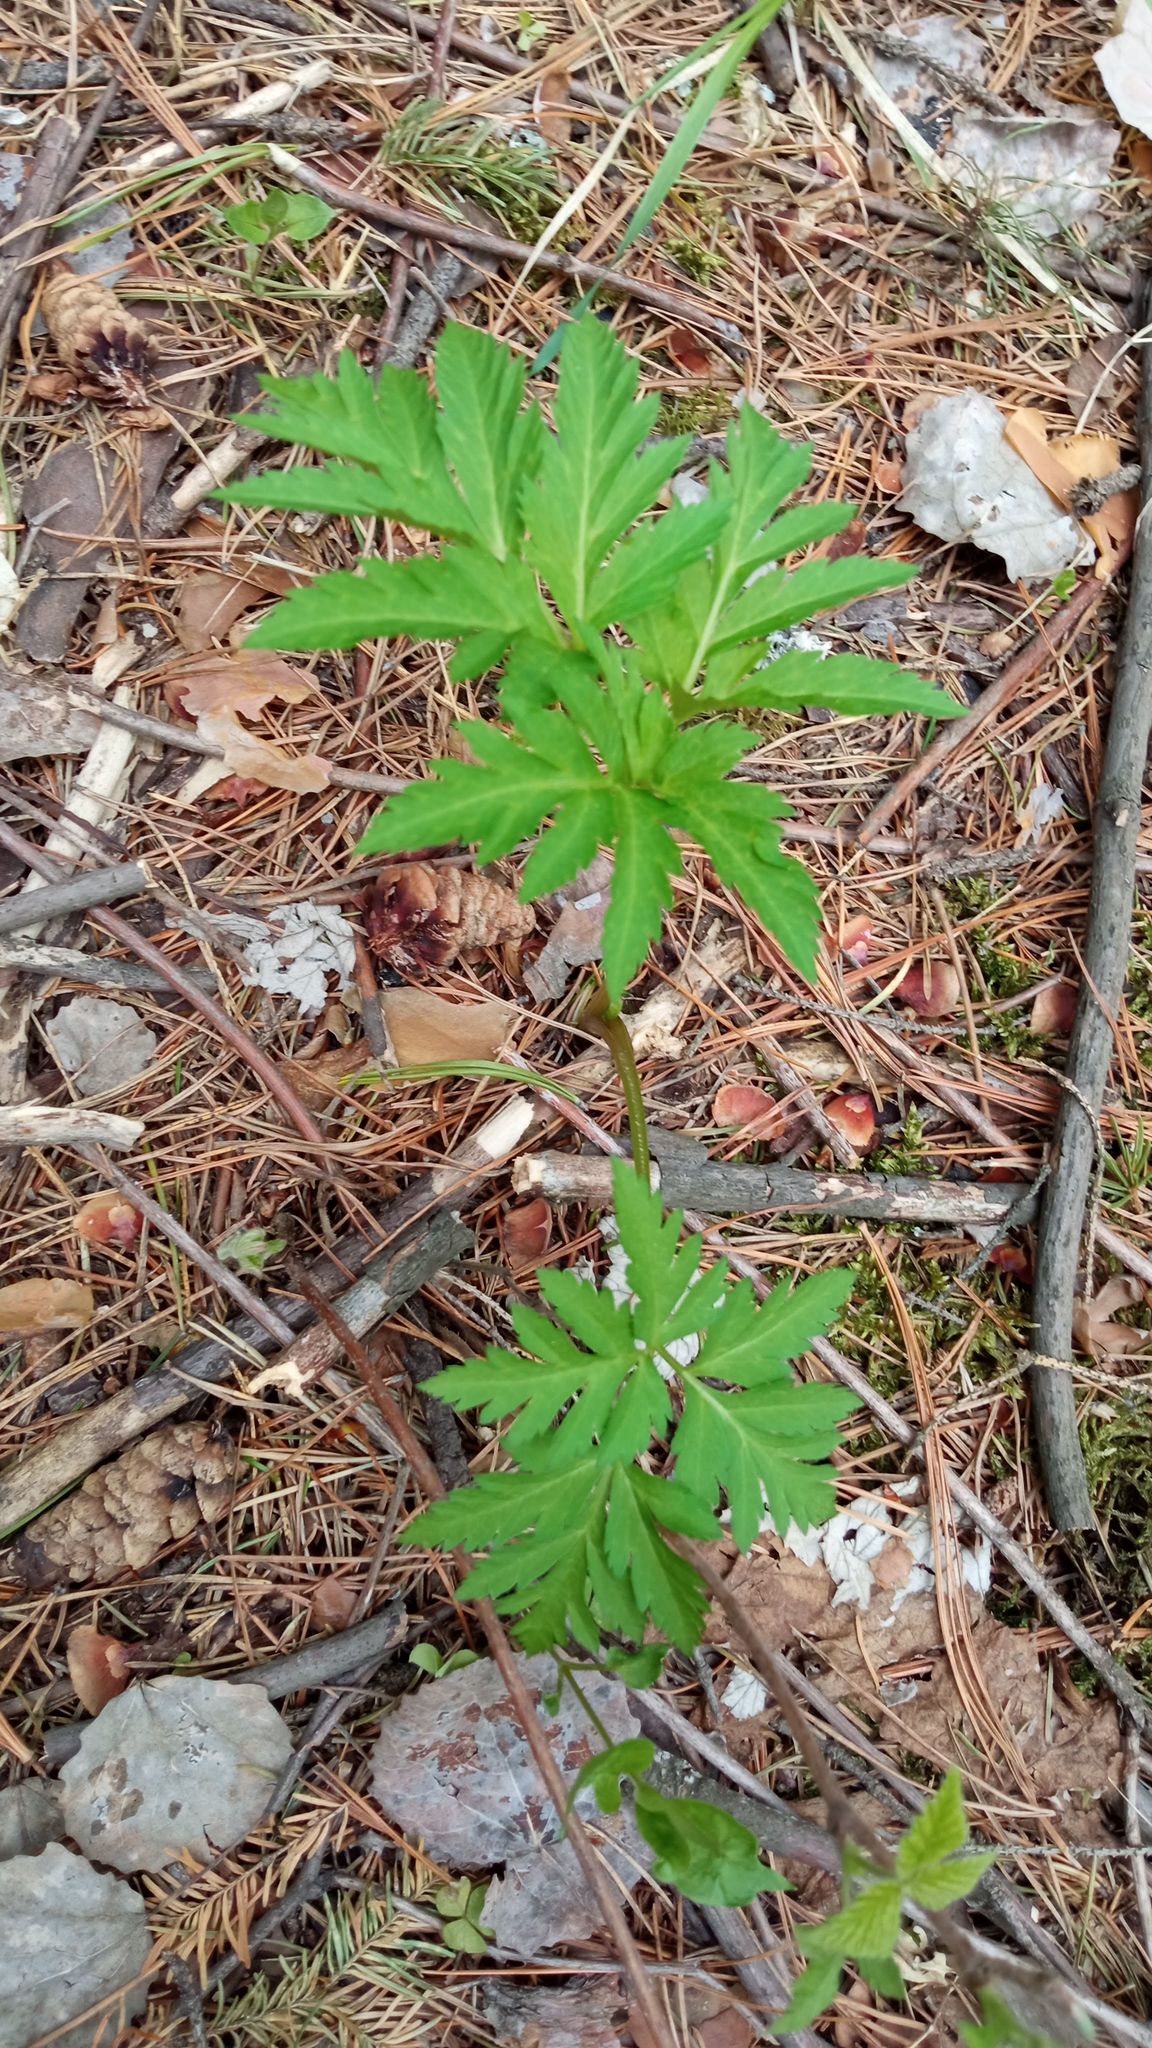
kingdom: Plantae
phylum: Tracheophyta
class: Magnoliopsida
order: Apiales
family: Apiaceae
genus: Pleurospermum
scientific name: Pleurospermum uralense
